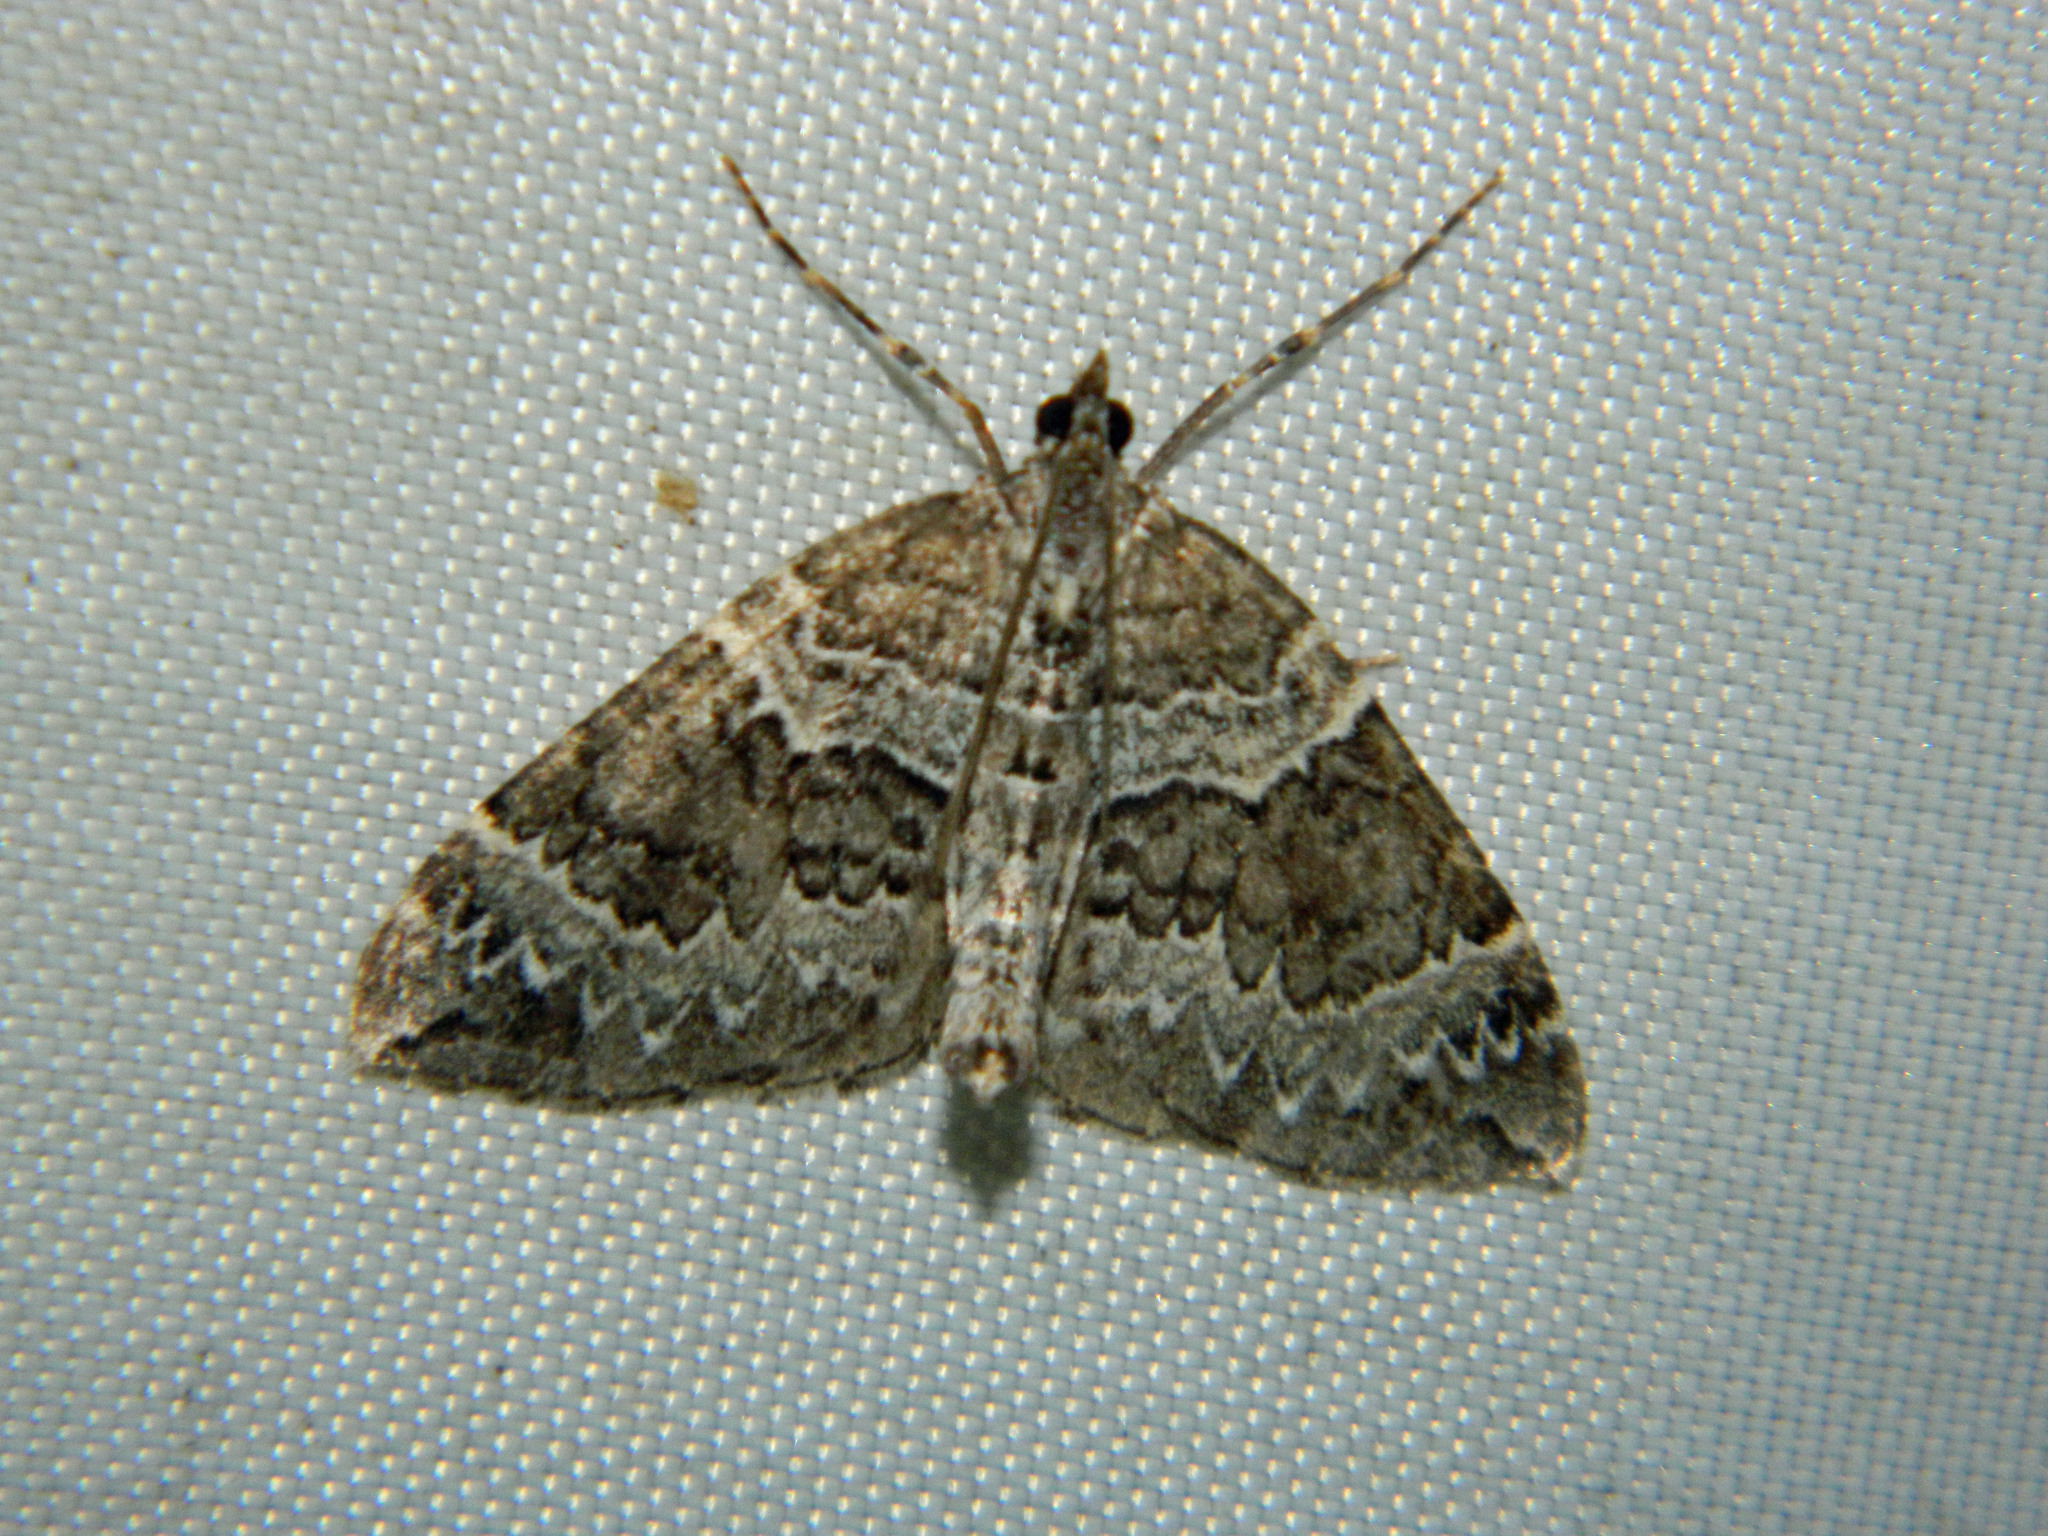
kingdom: Animalia
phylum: Arthropoda
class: Insecta
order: Lepidoptera
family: Geometridae
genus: Eulithis
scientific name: Eulithis explanata
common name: White eulithis
